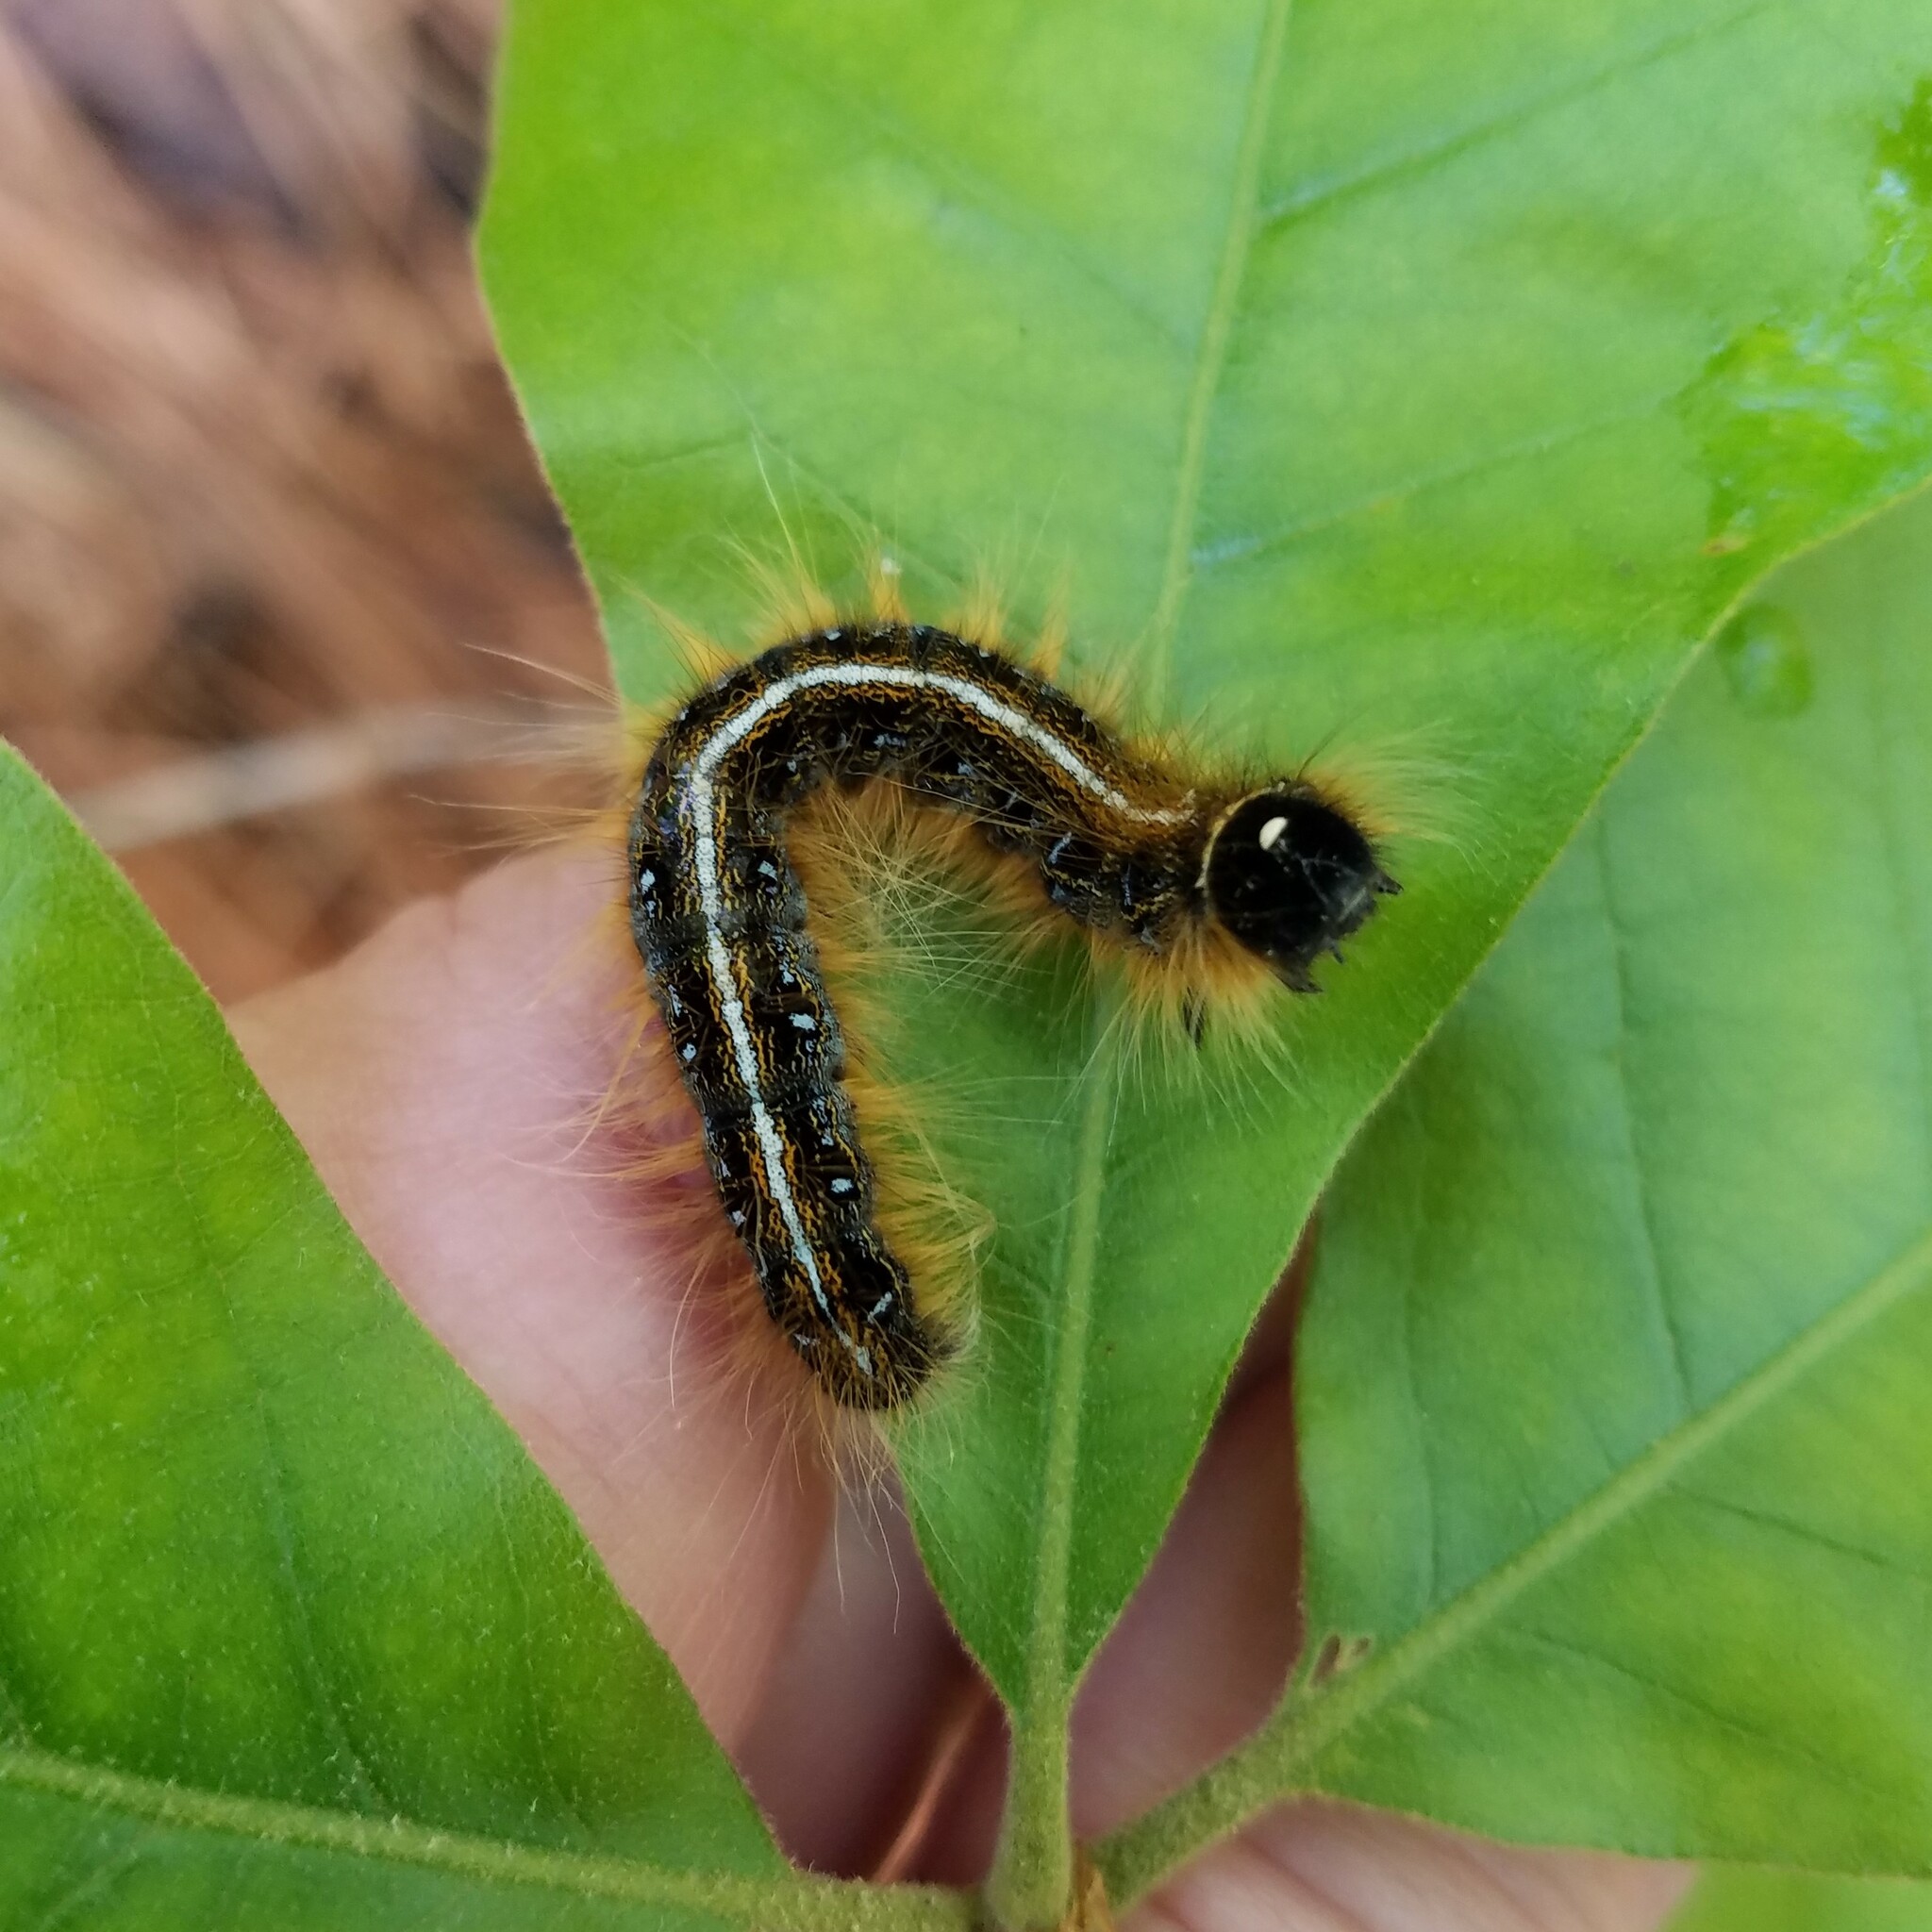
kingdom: Animalia
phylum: Arthropoda
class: Insecta
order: Lepidoptera
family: Lasiocampidae
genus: Malacosoma
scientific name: Malacosoma americana
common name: Eastern tent caterpillar moth
